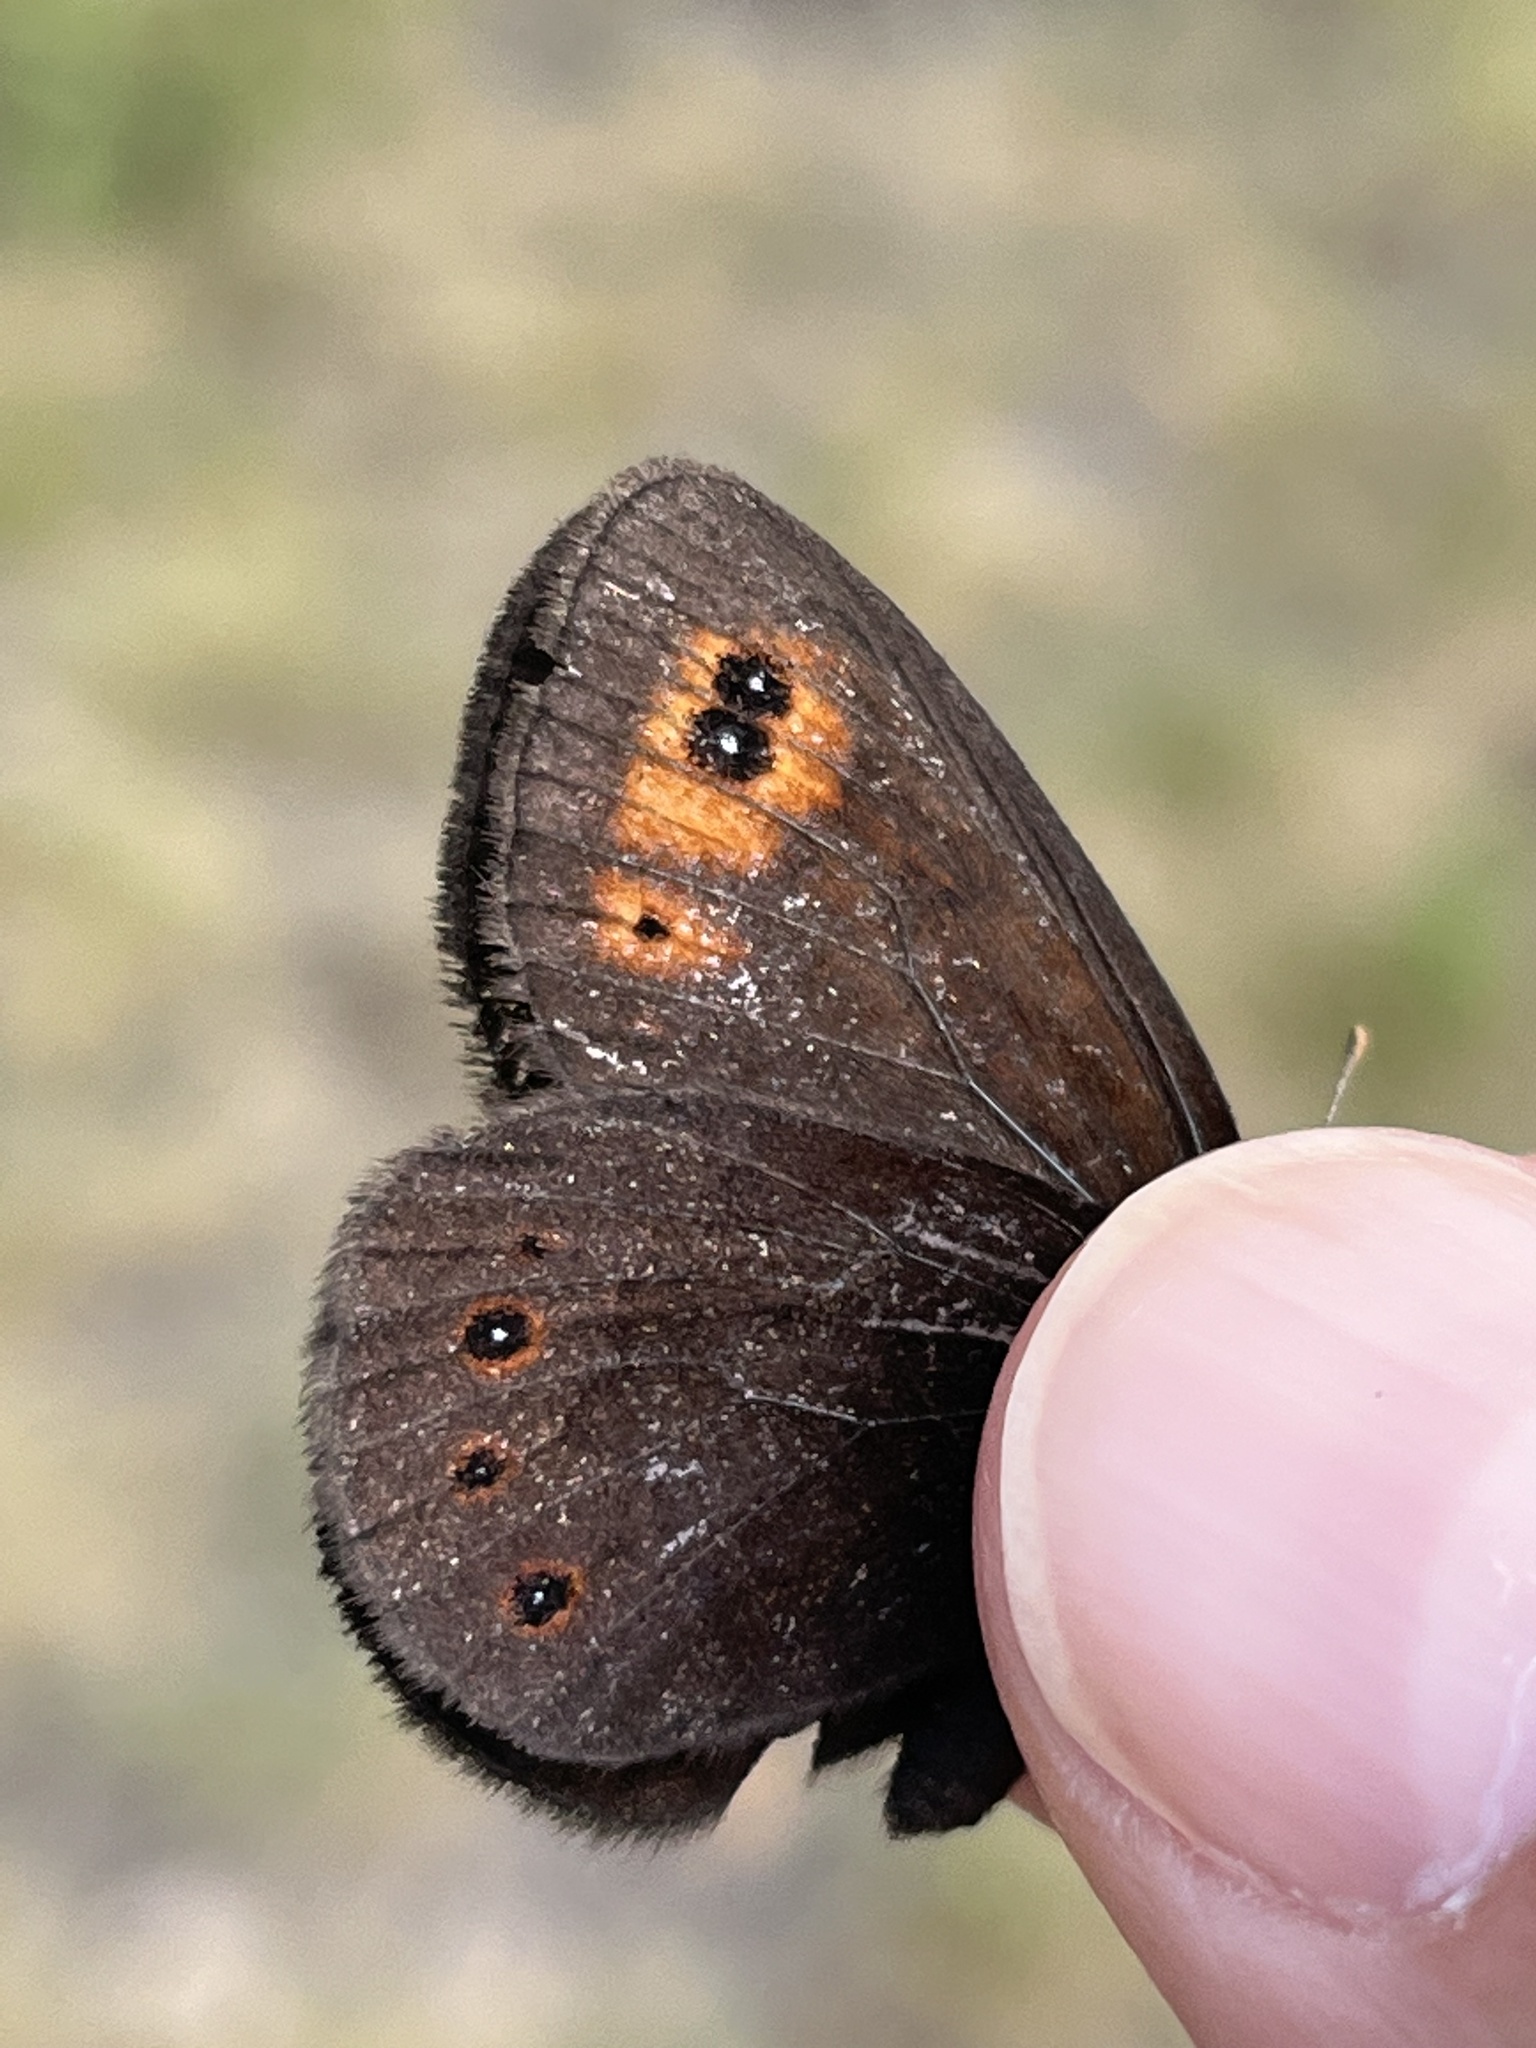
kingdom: Animalia
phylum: Arthropoda
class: Insecta
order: Lepidoptera
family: Nymphalidae
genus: Erebia
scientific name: Erebia epipsodea
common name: Common alpine
